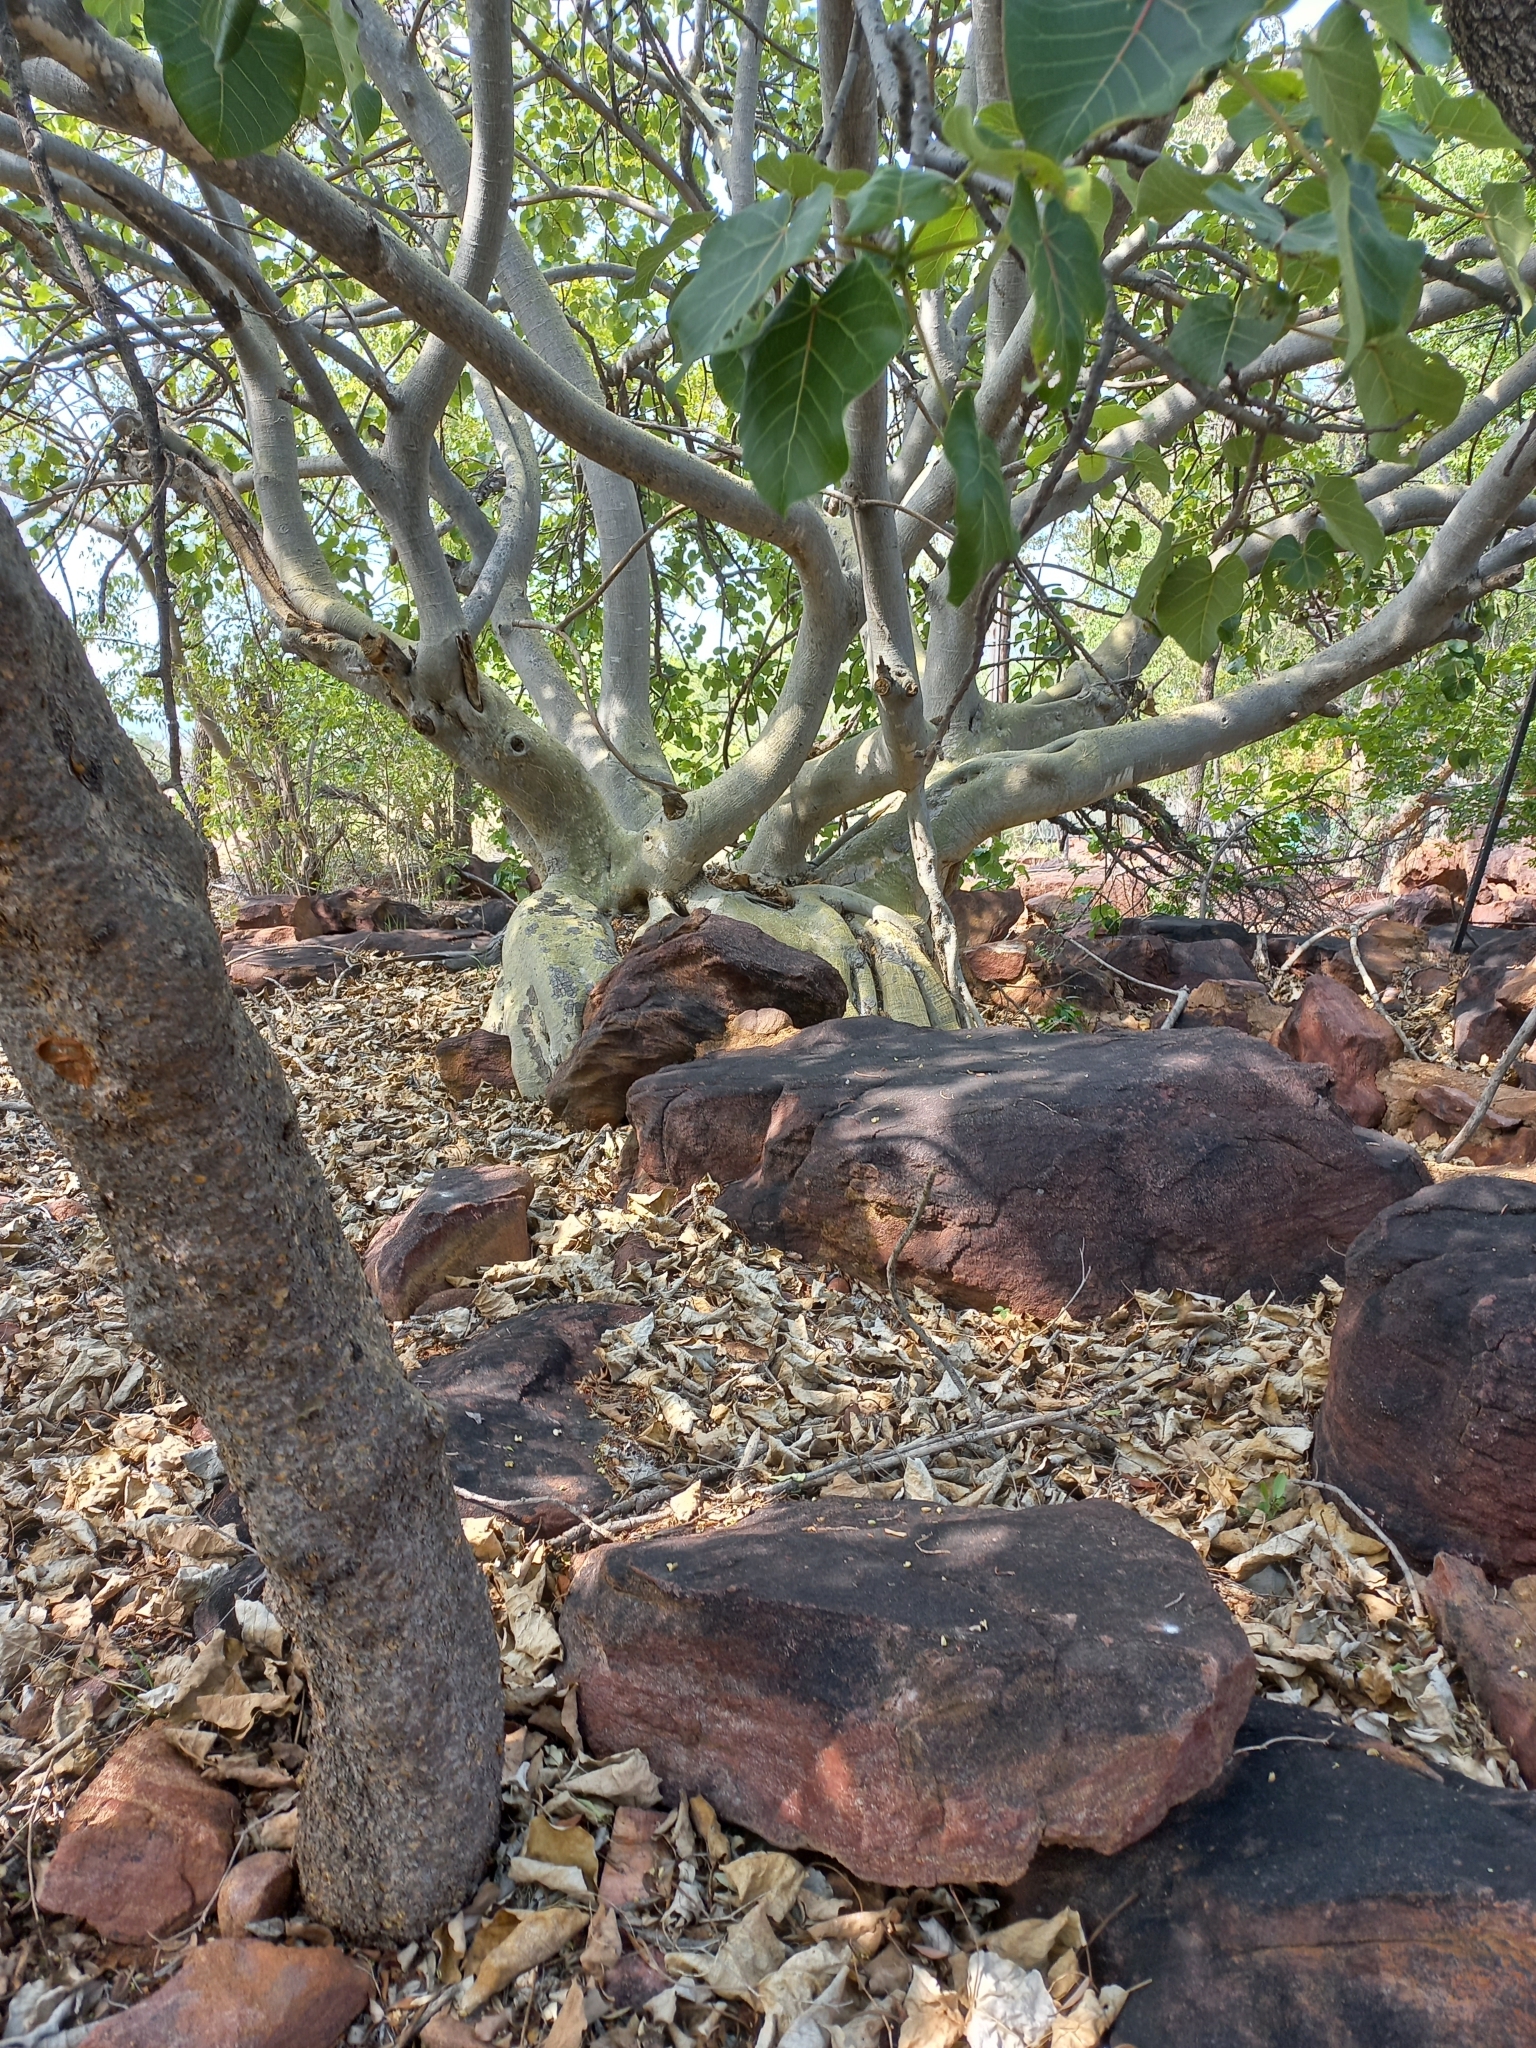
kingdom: Plantae
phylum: Tracheophyta
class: Magnoliopsida
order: Rosales
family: Moraceae
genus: Ficus
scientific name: Ficus abutilifolia
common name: Large-leaved rock fig
